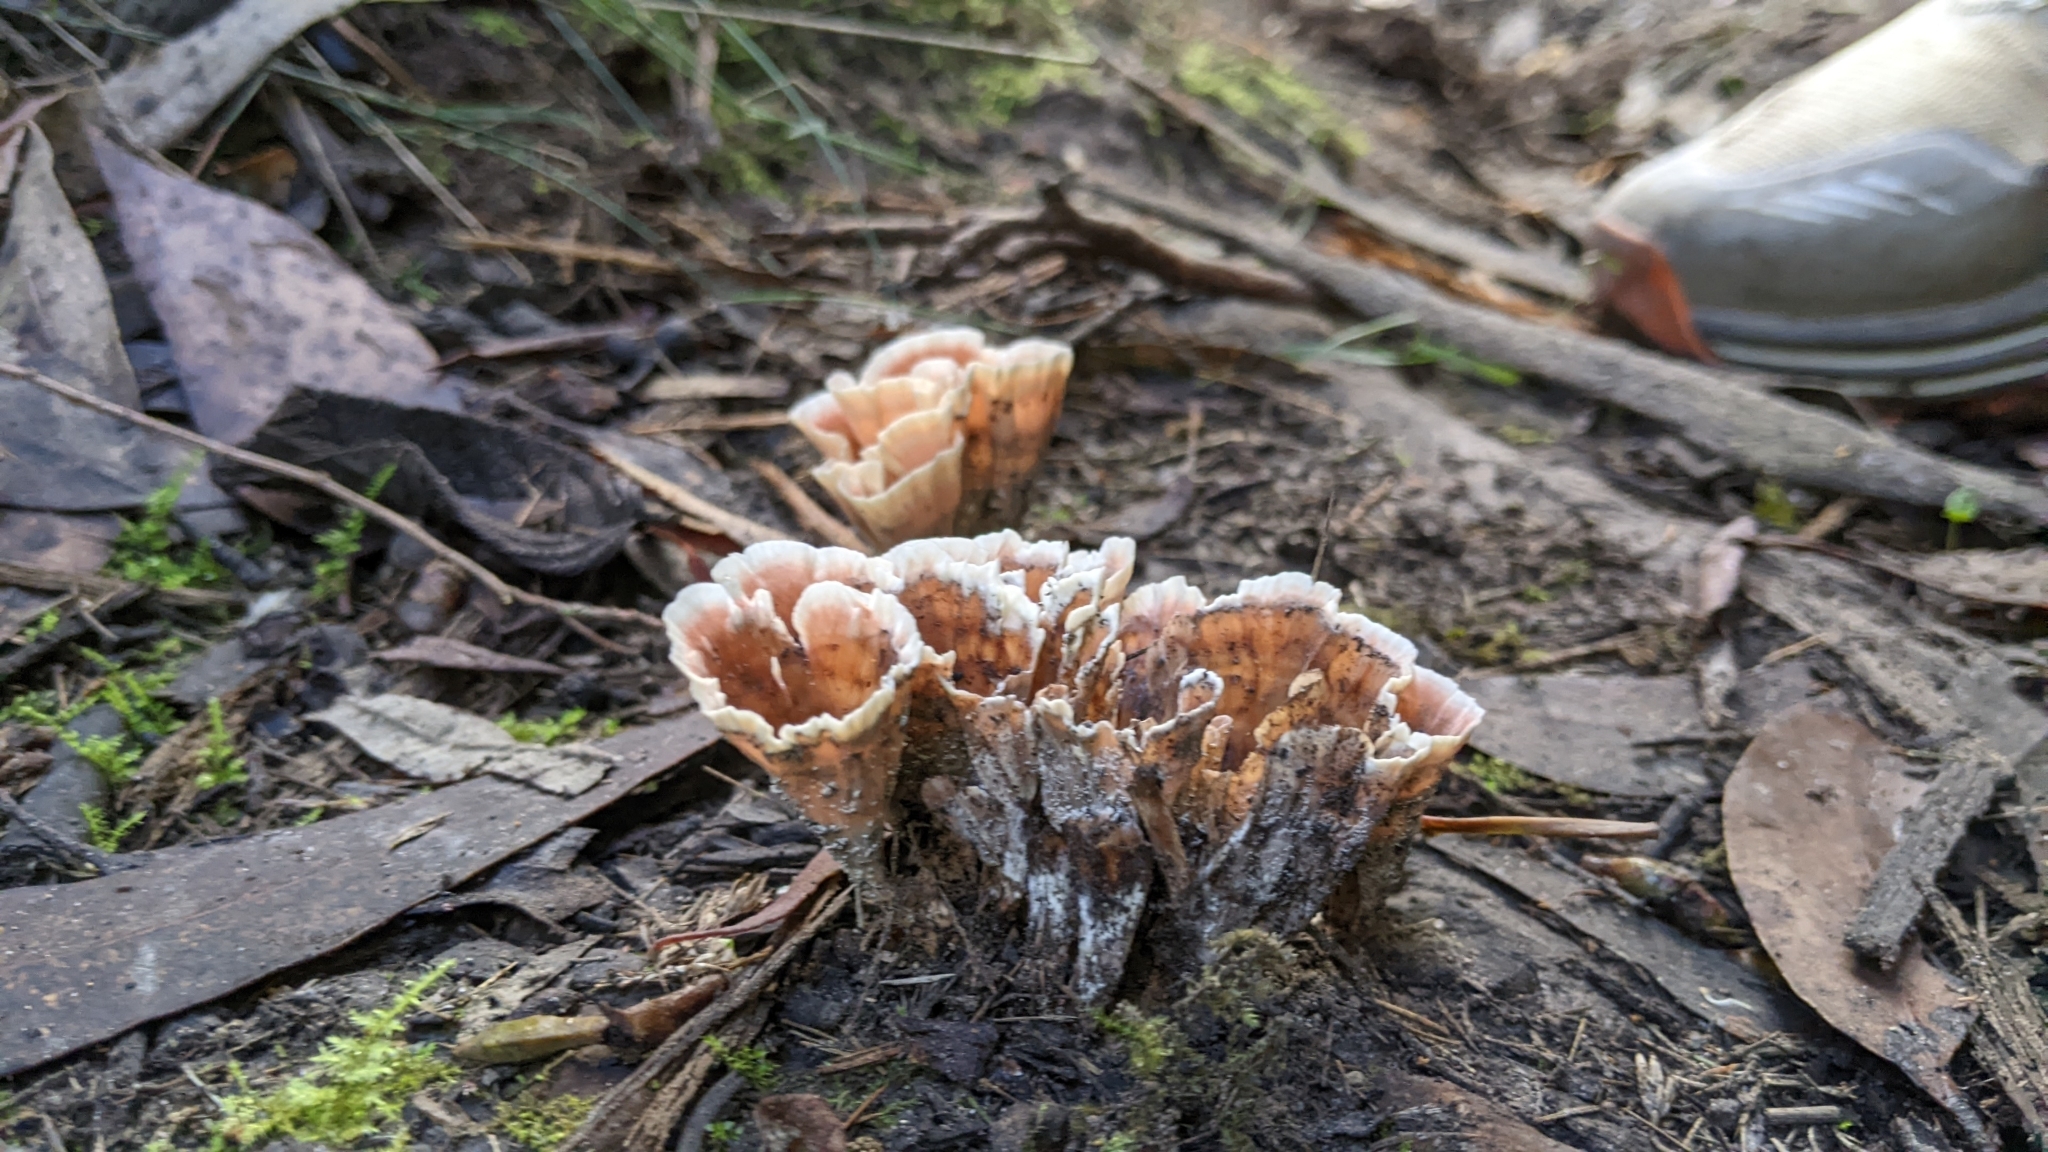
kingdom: Fungi
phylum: Basidiomycota
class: Agaricomycetes
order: Polyporales
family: Podoscyphaceae
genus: Podoscypha
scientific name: Podoscypha petalodes
